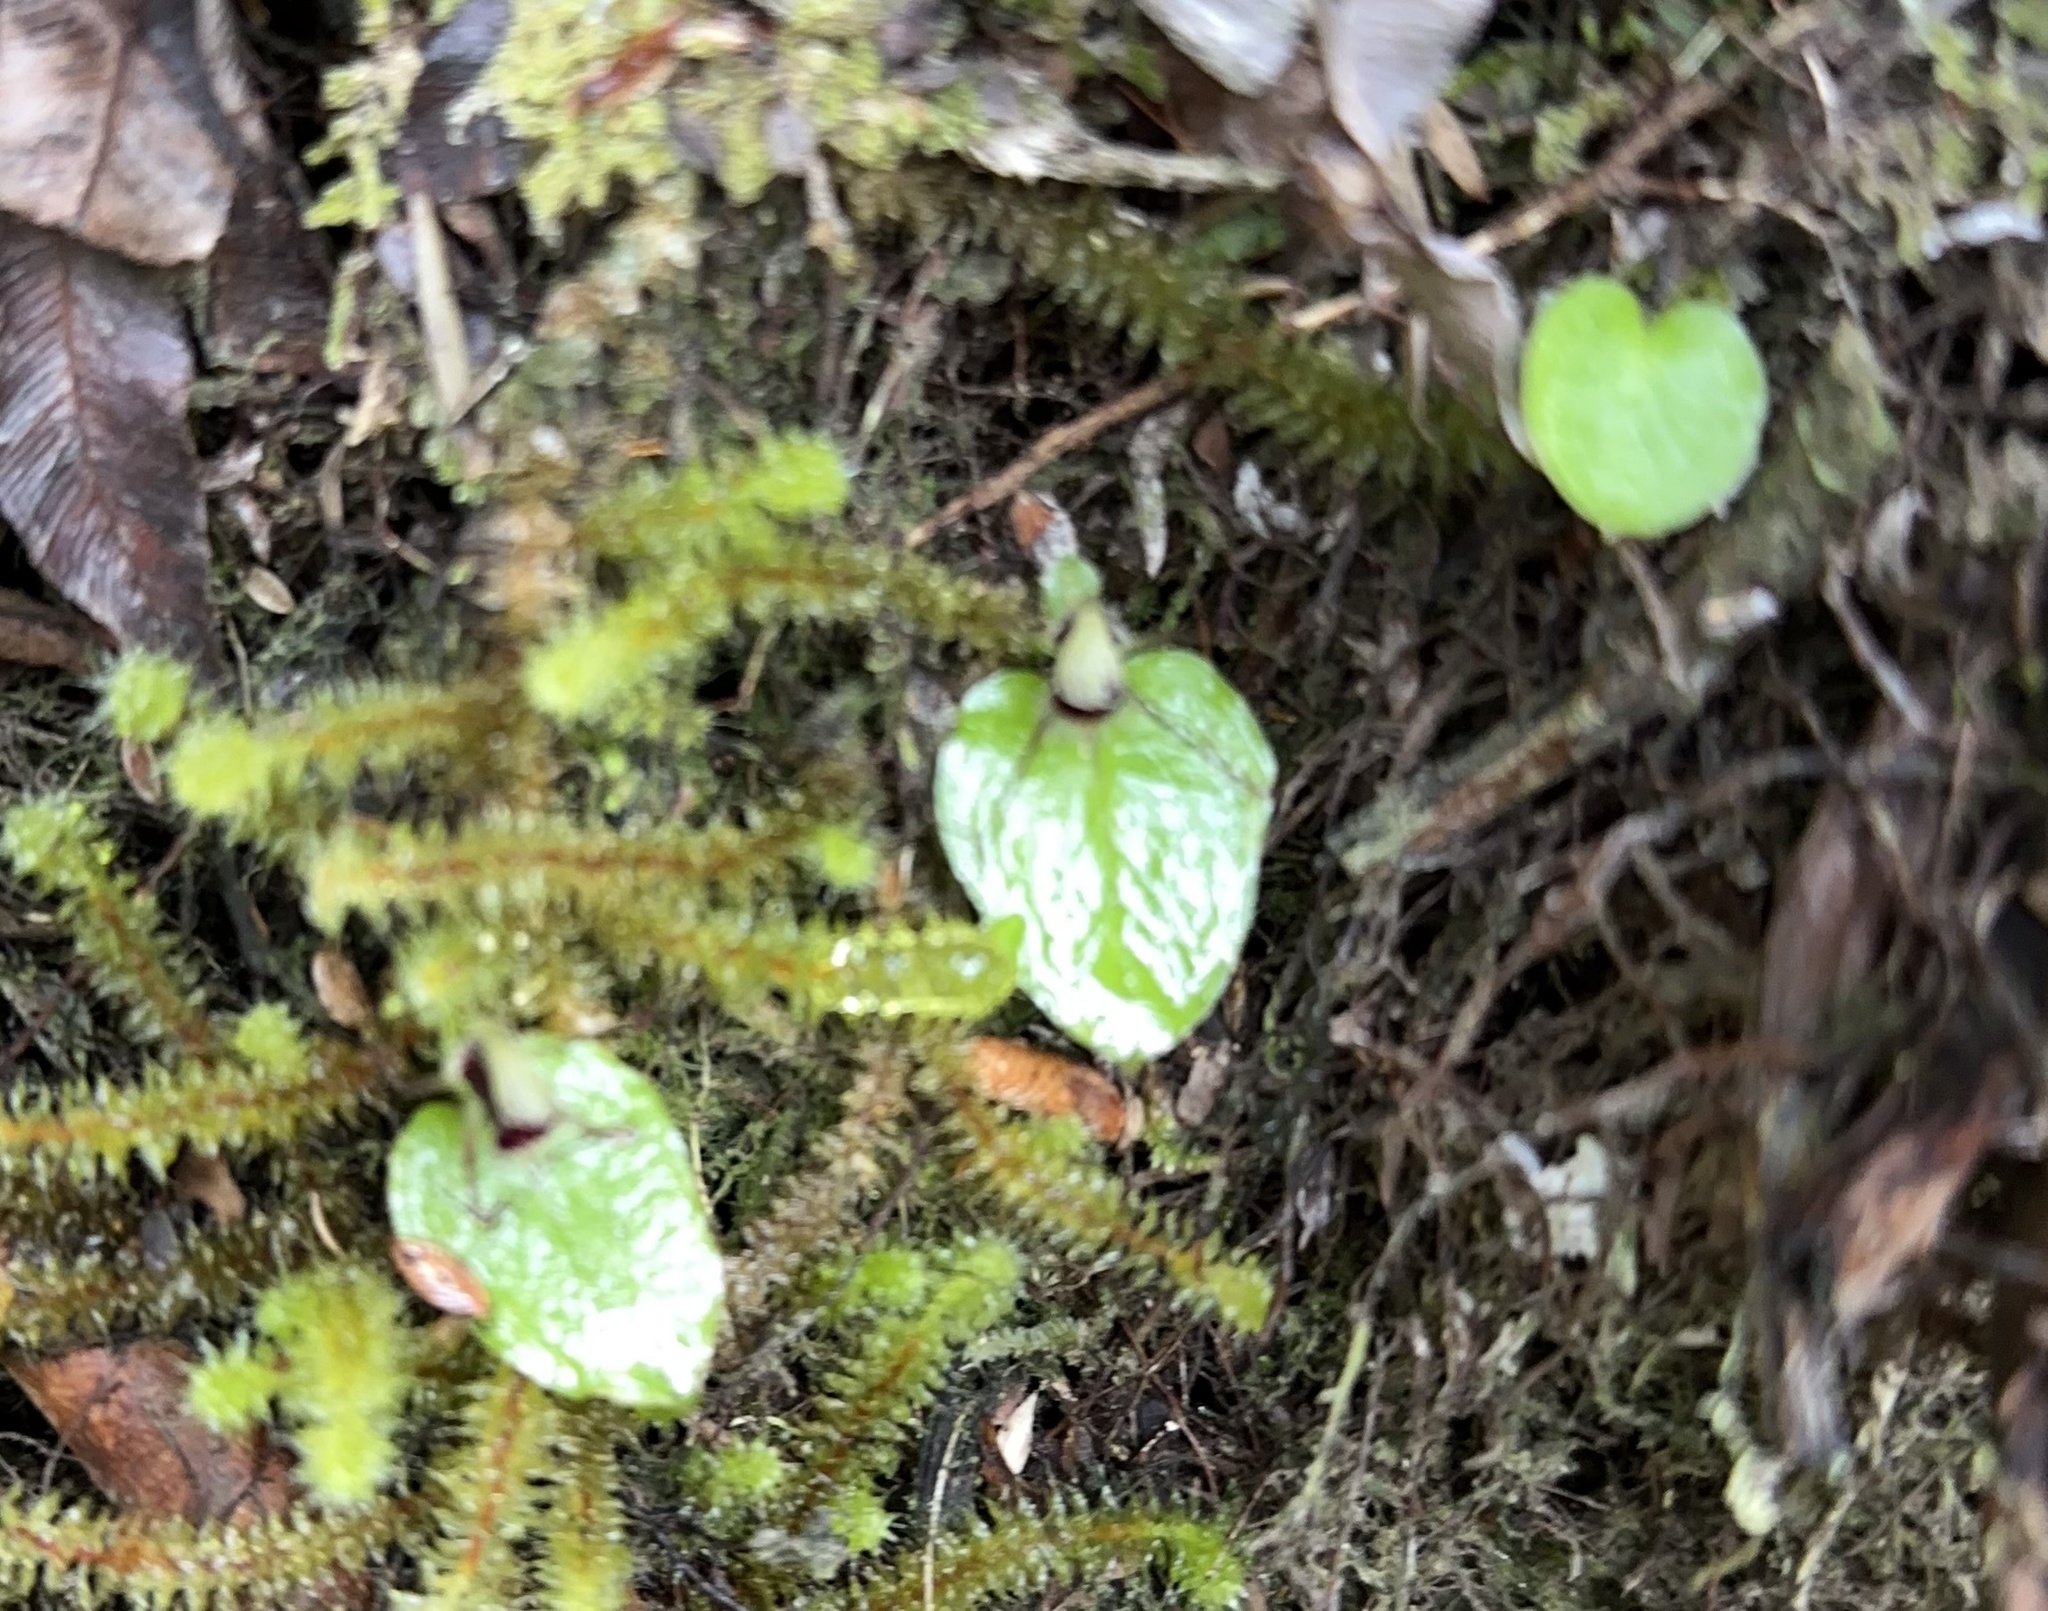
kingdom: Plantae
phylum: Tracheophyta
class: Liliopsida
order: Asparagales
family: Orchidaceae
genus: Corybas
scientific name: Corybas oblongus
